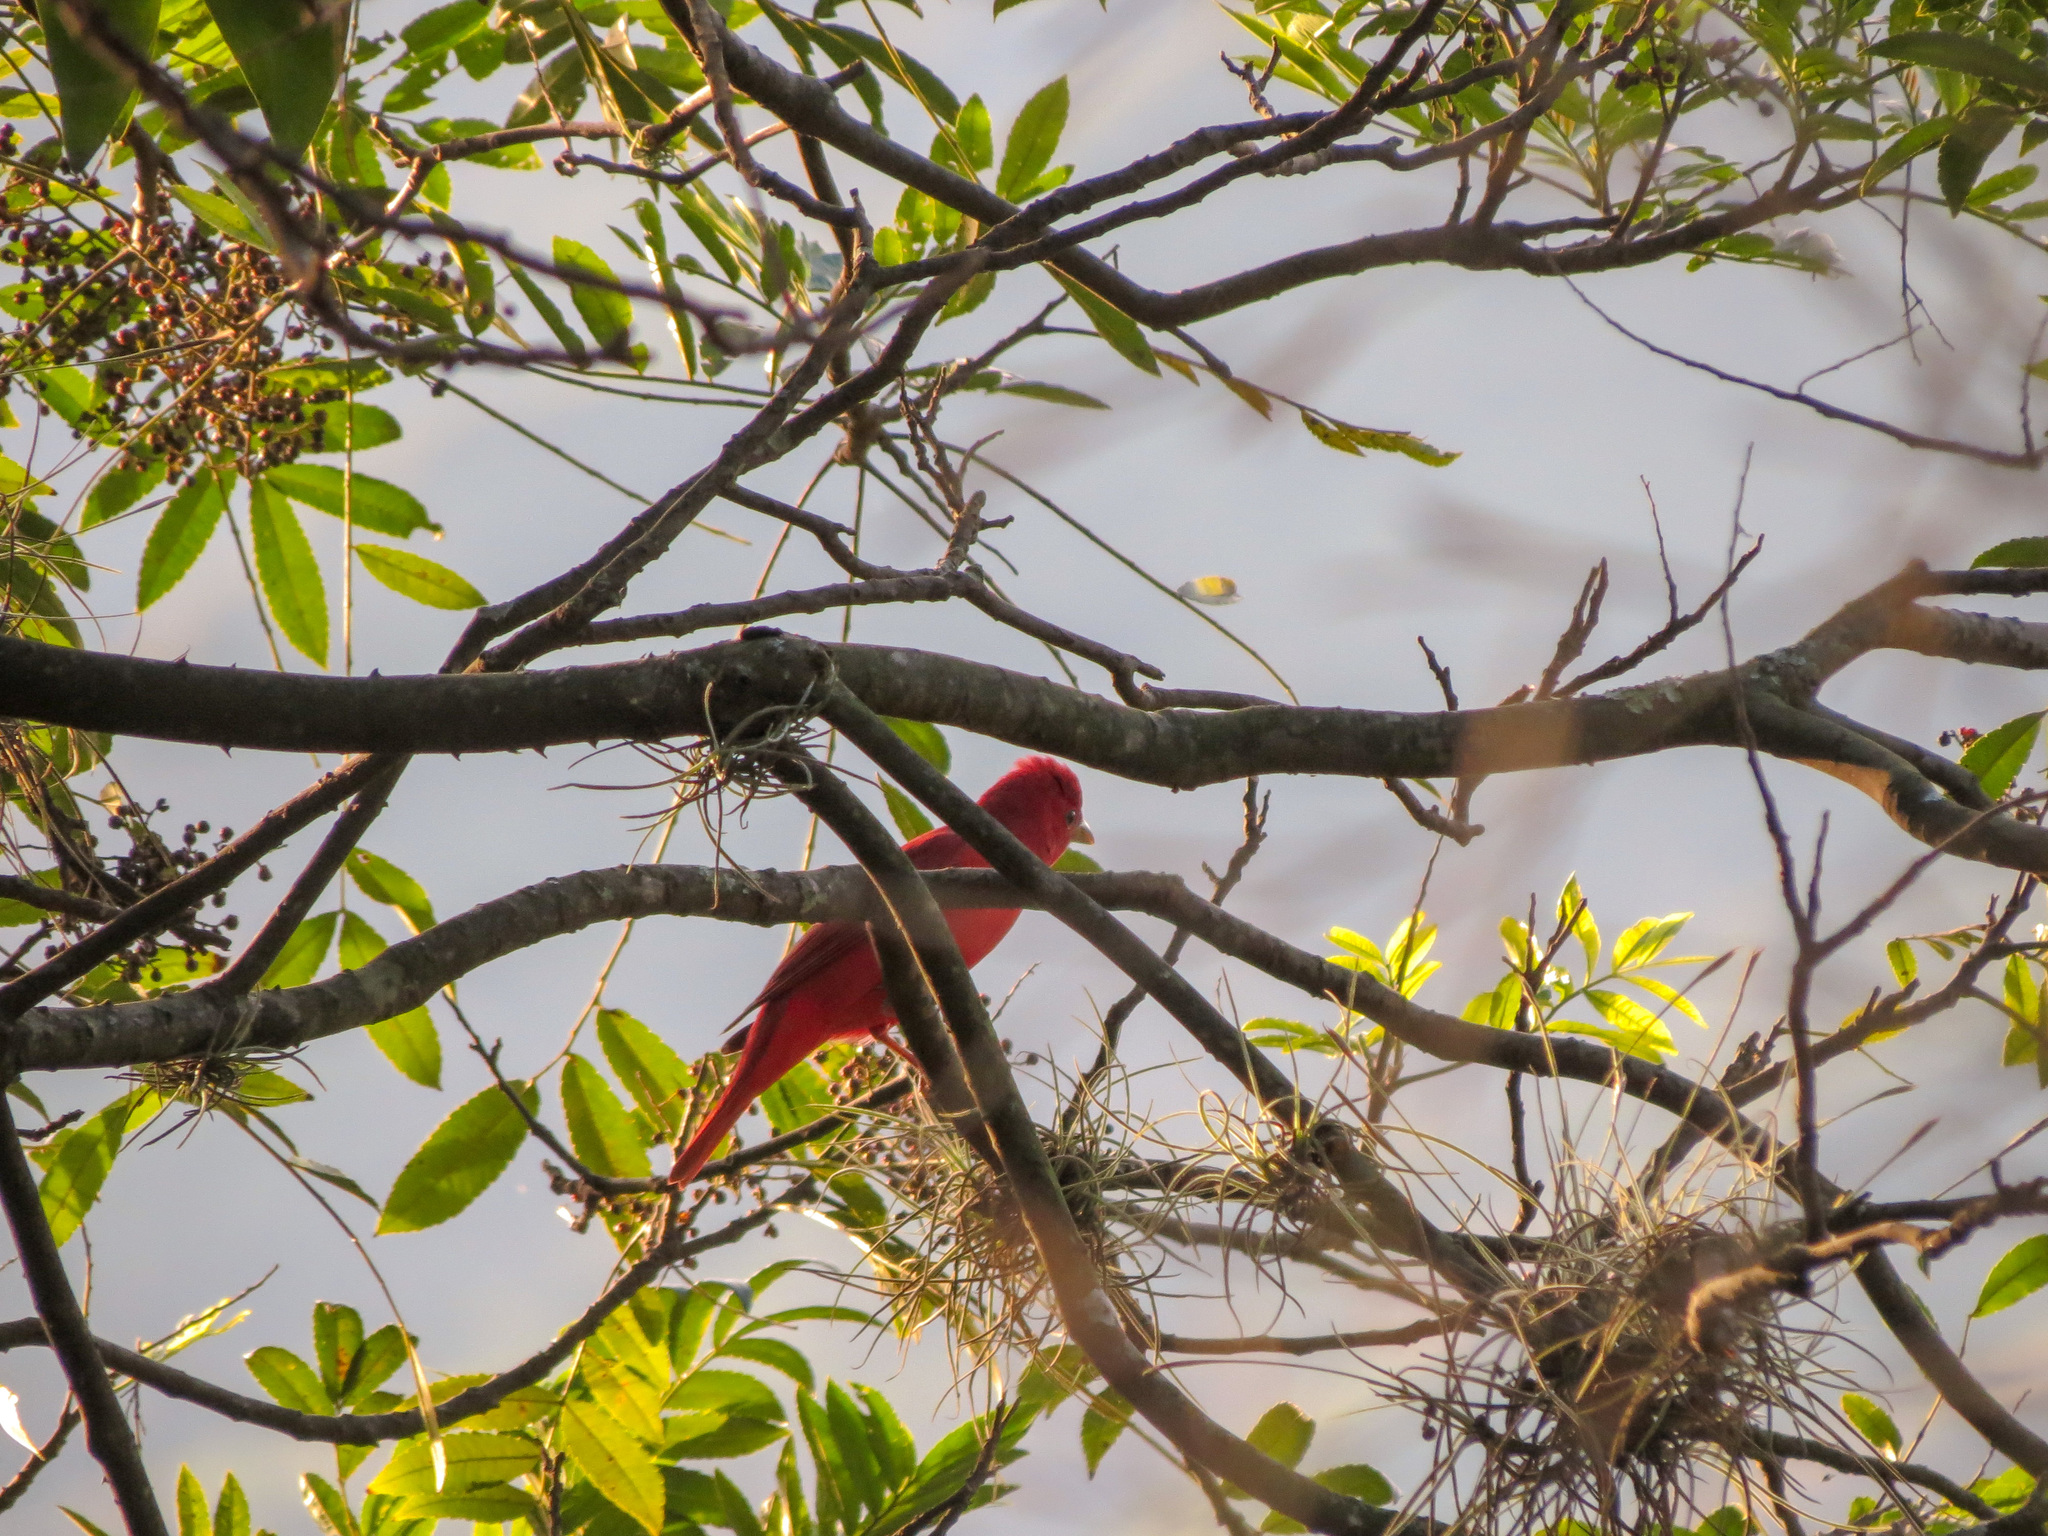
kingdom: Animalia
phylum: Chordata
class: Aves
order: Passeriformes
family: Cardinalidae
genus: Piranga
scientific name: Piranga rubra
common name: Summer tanager
